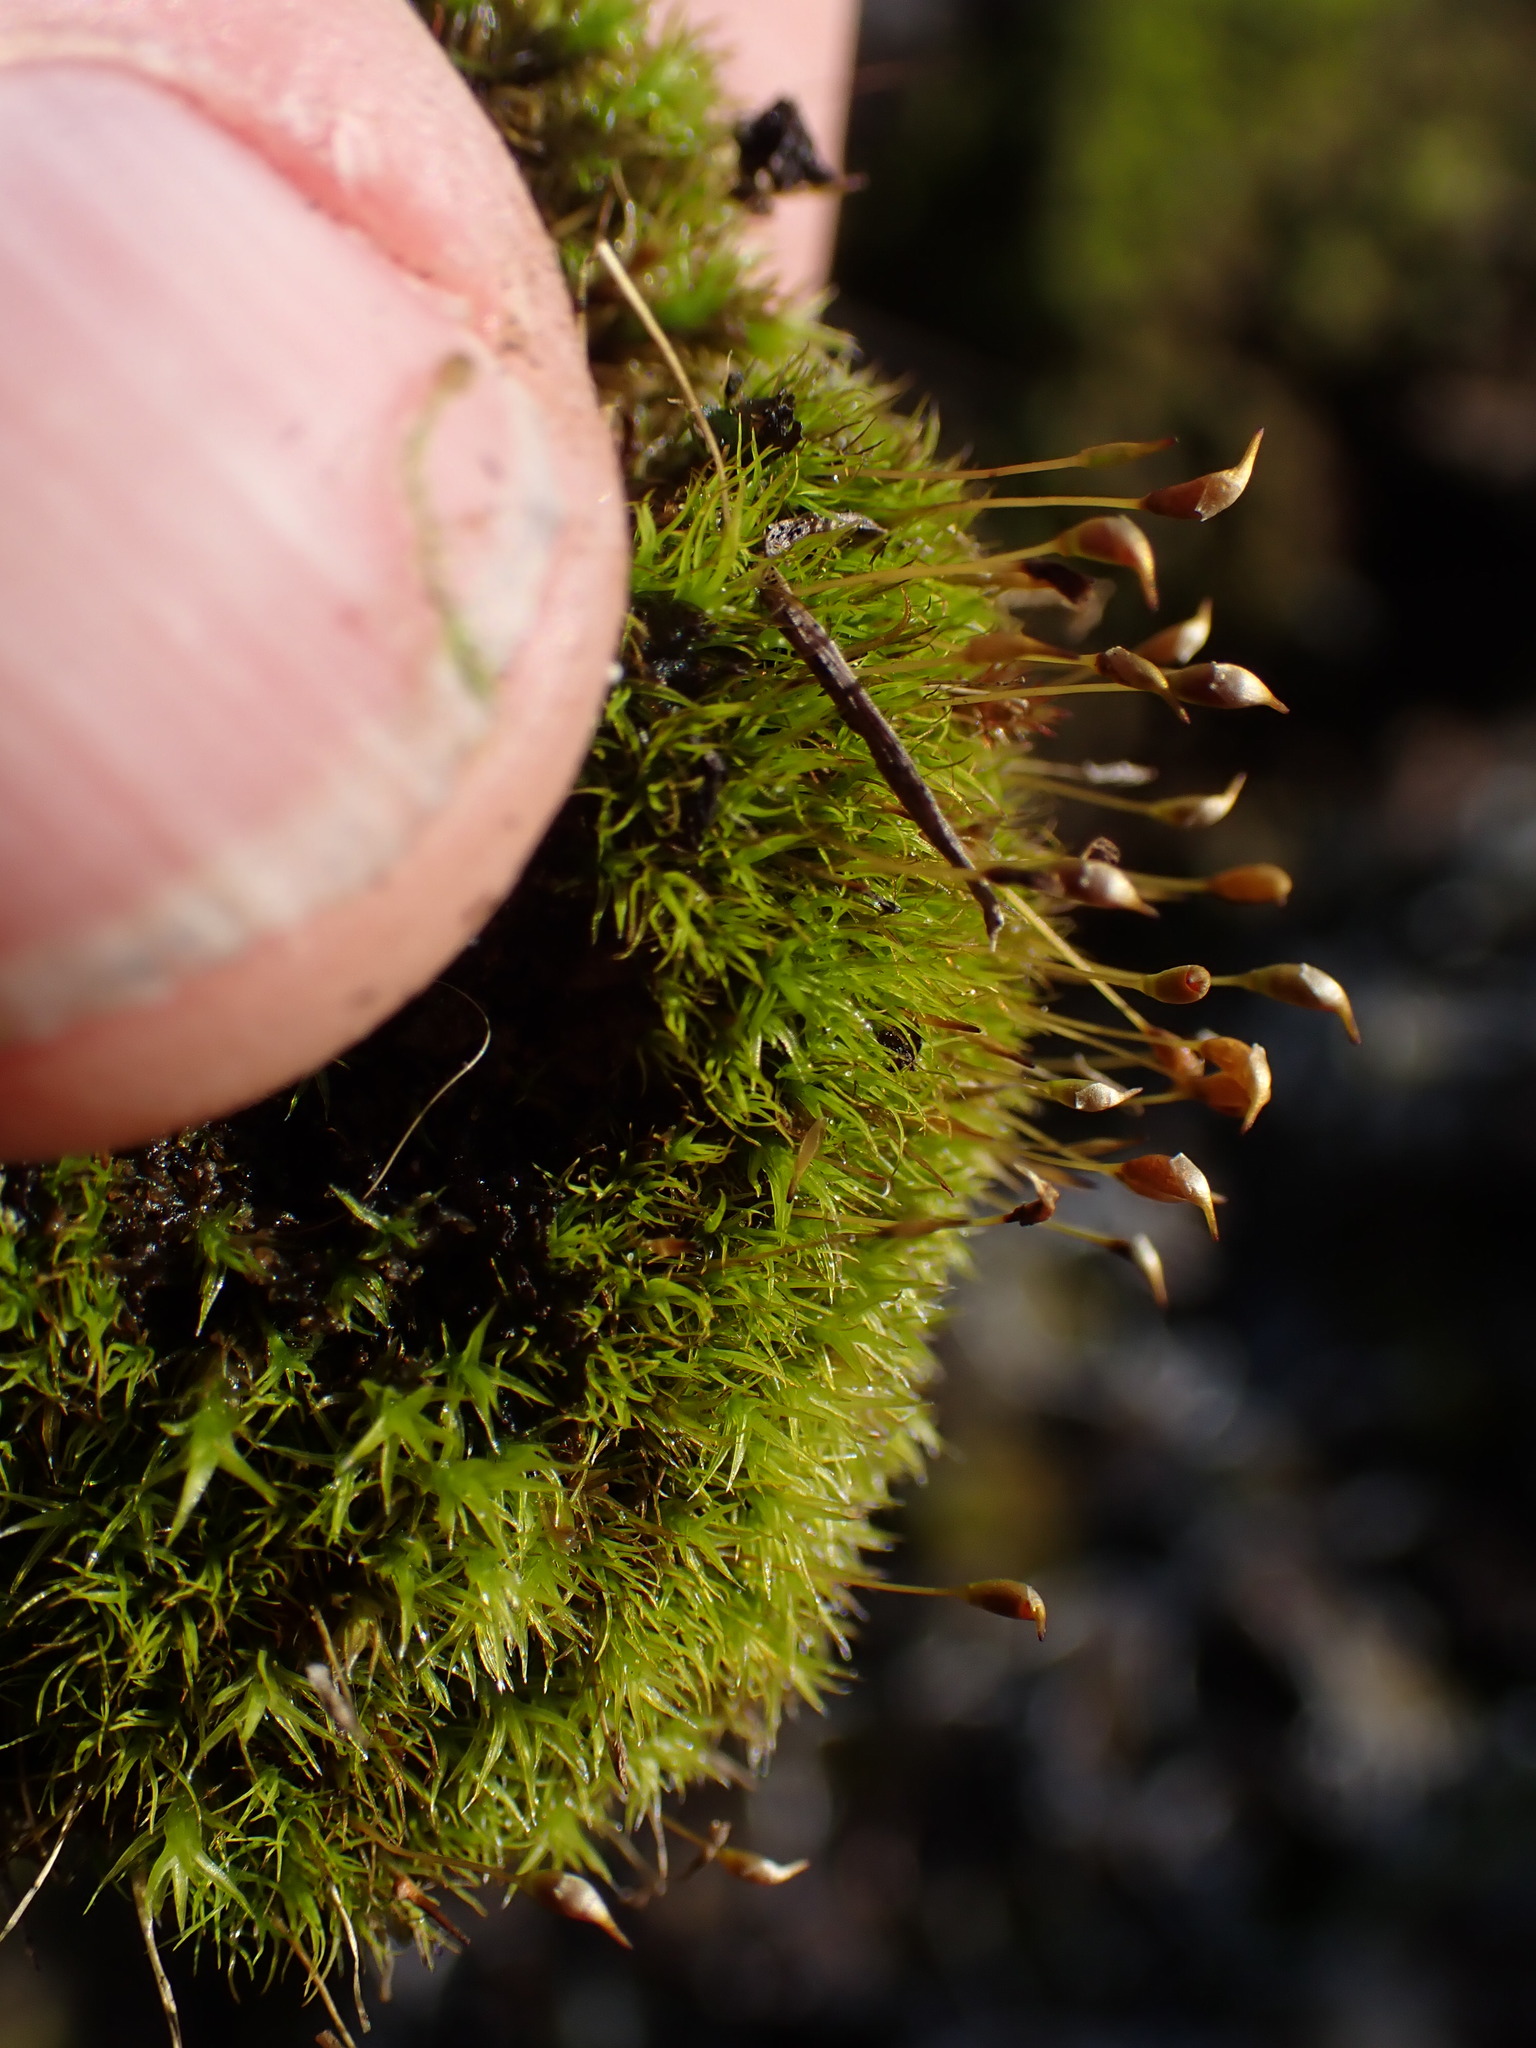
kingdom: Plantae
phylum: Bryophyta
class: Bryopsida
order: Scouleriales
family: Hymenolomataceae
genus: Hymenoloma
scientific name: Hymenoloma crispulum
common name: Mountain pincushion
